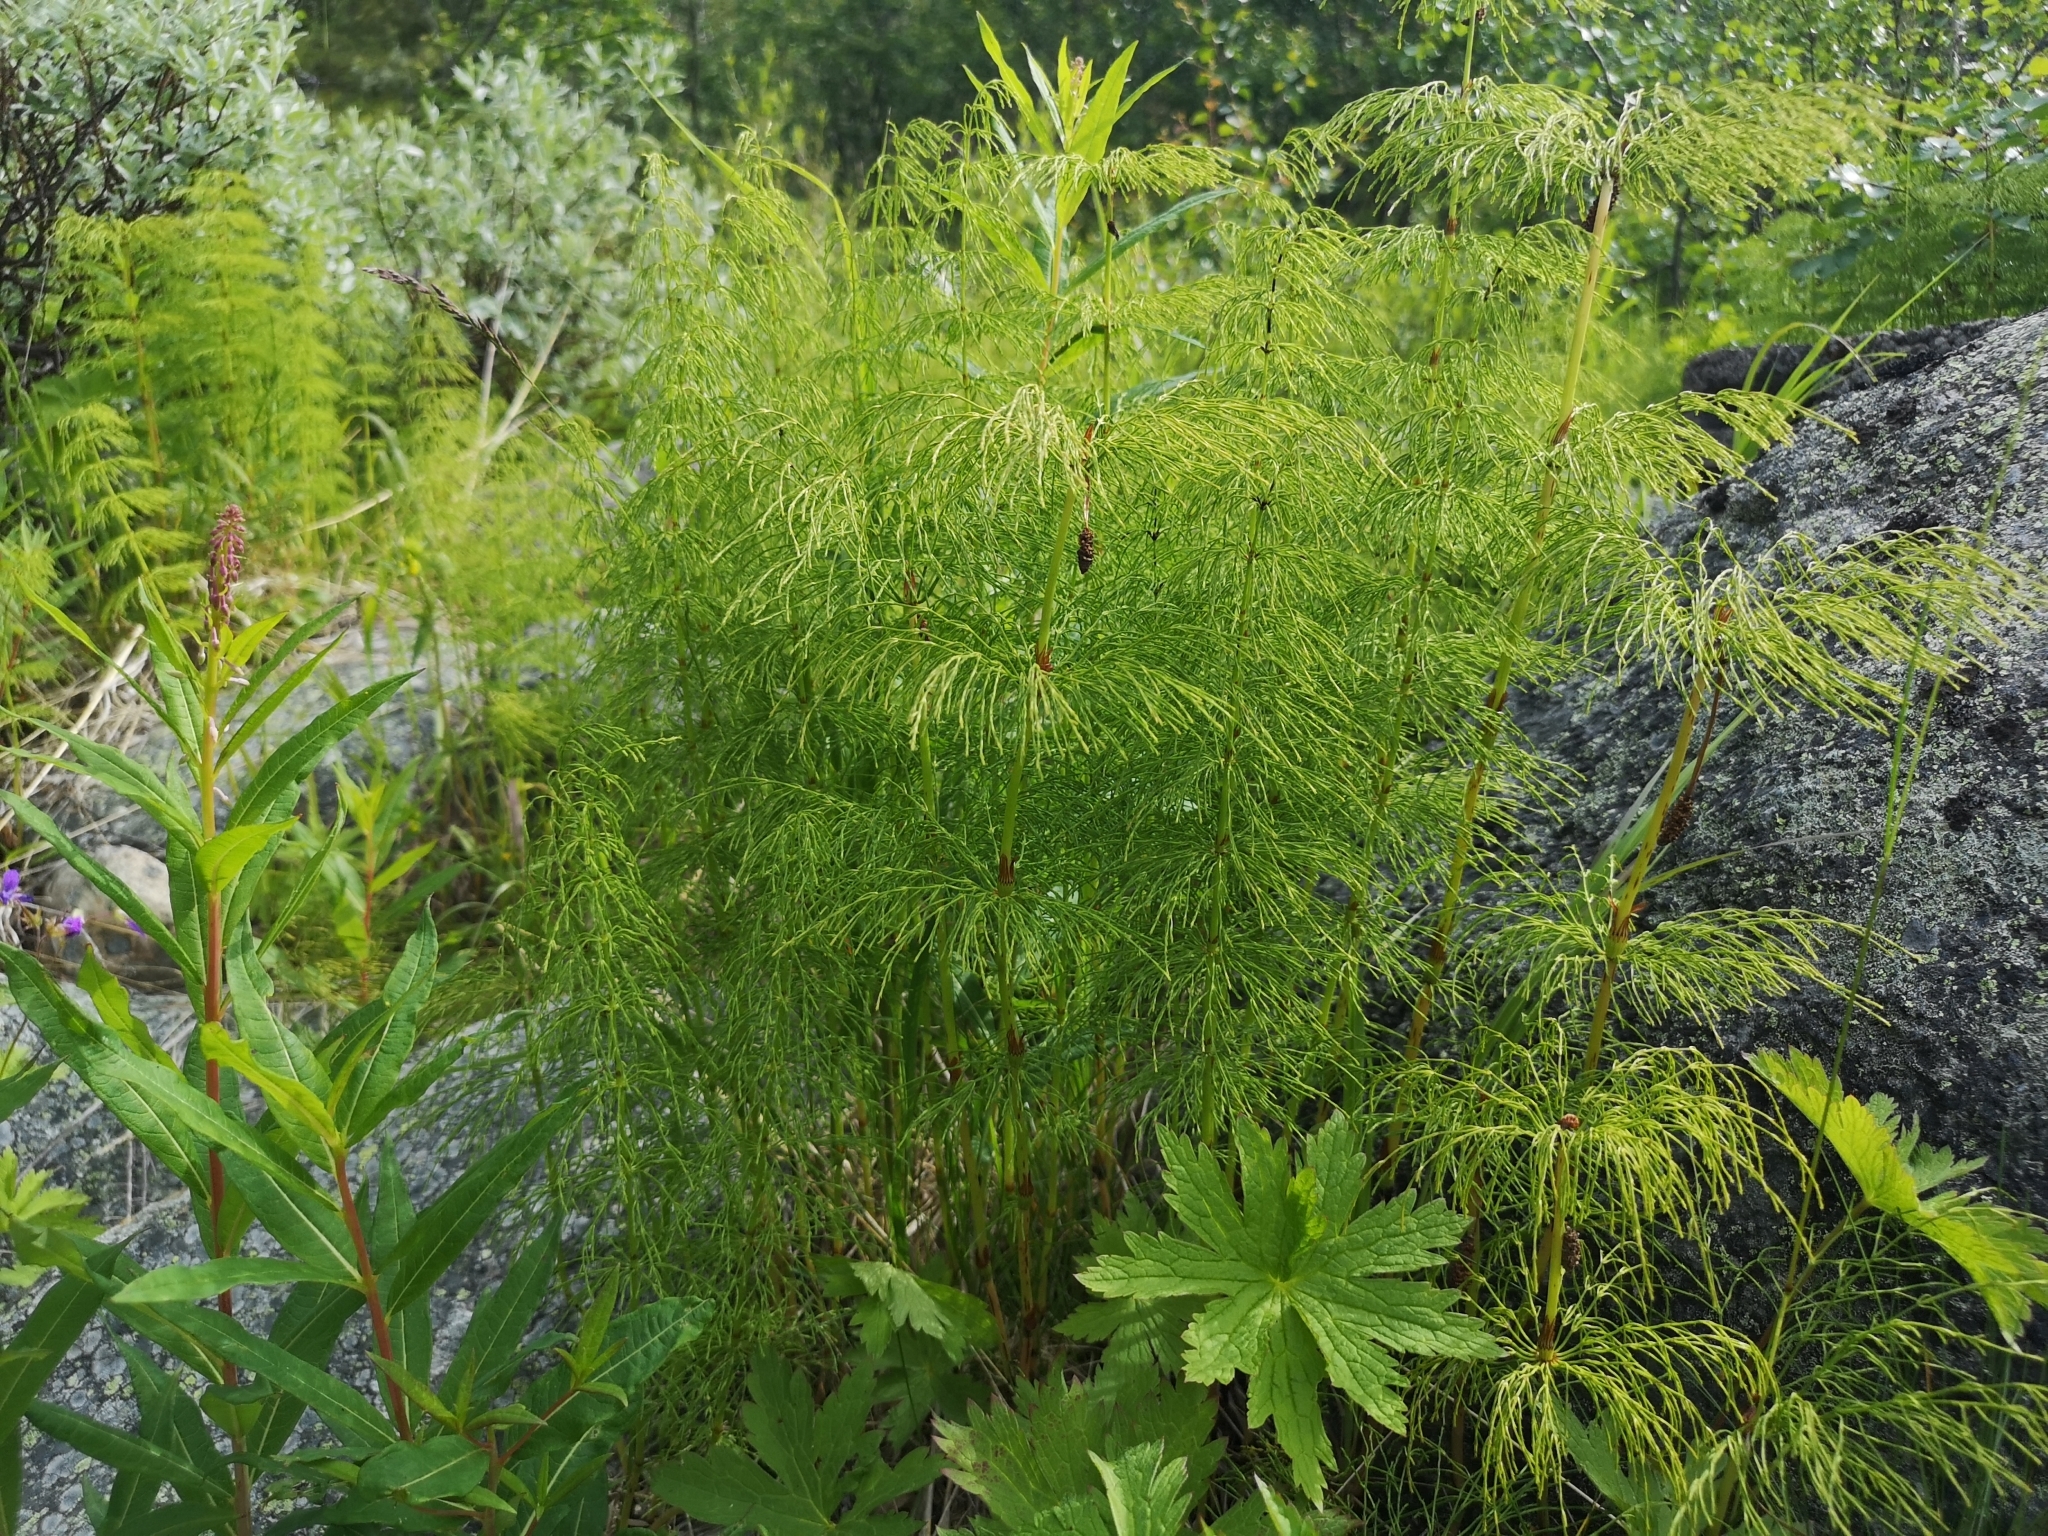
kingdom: Plantae
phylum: Tracheophyta
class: Polypodiopsida
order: Equisetales
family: Equisetaceae
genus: Equisetum
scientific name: Equisetum sylvaticum
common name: Wood horsetail
